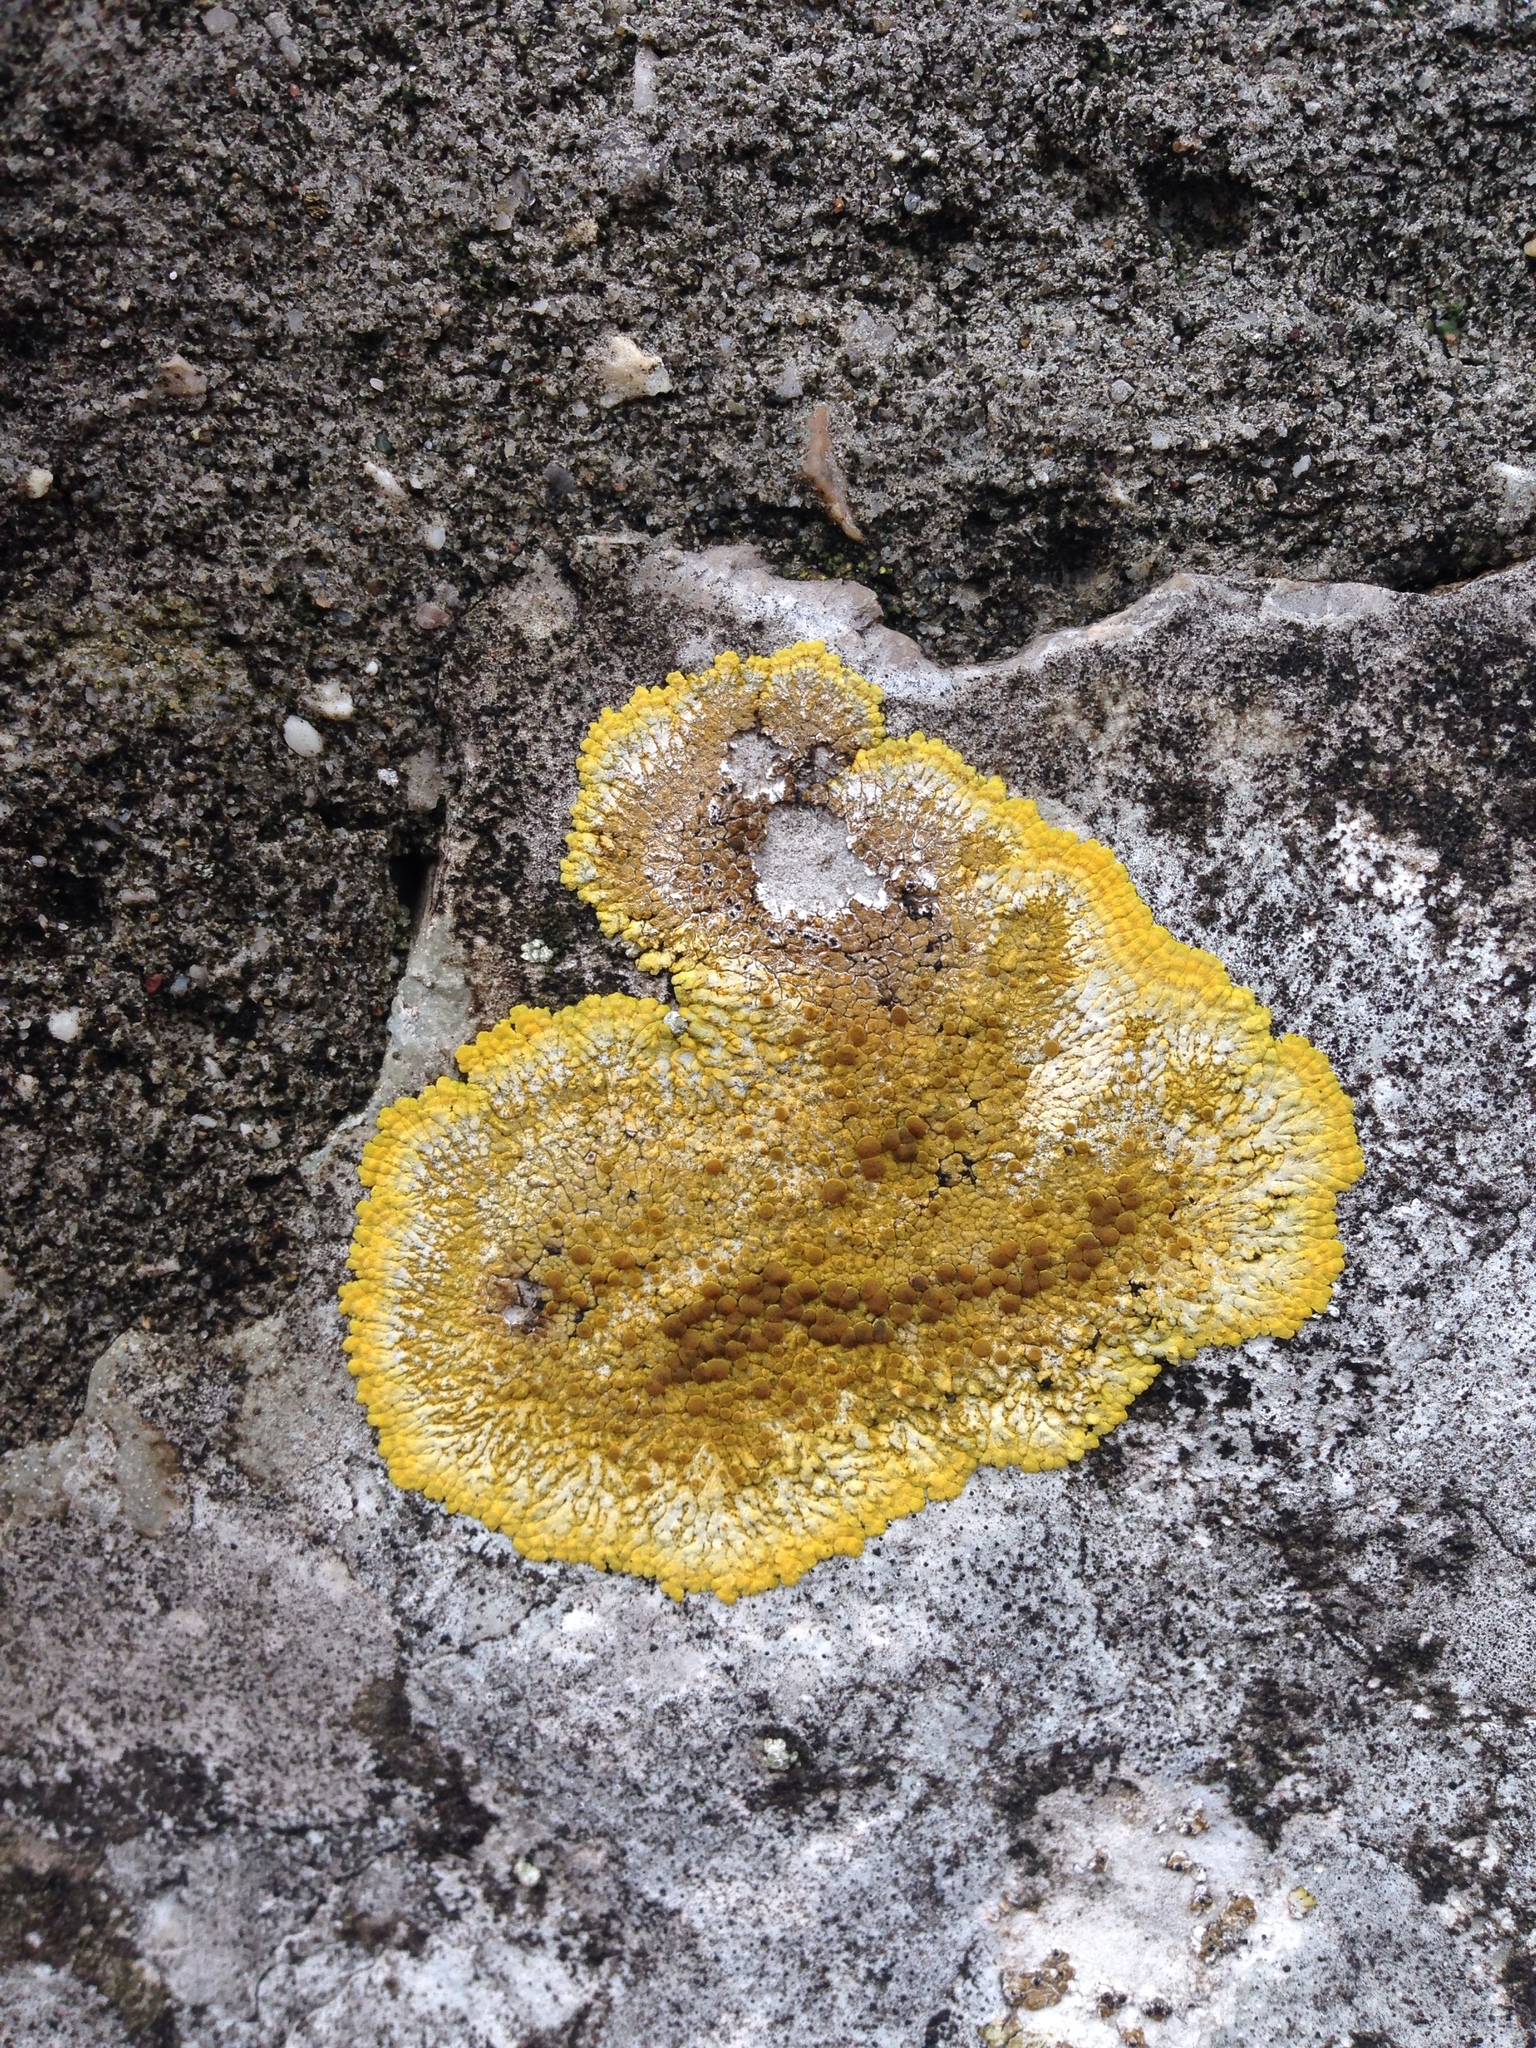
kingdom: Fungi
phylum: Ascomycota
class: Lecanoromycetes
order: Teloschistales
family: Teloschistaceae
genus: Variospora
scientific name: Variospora aurantia
